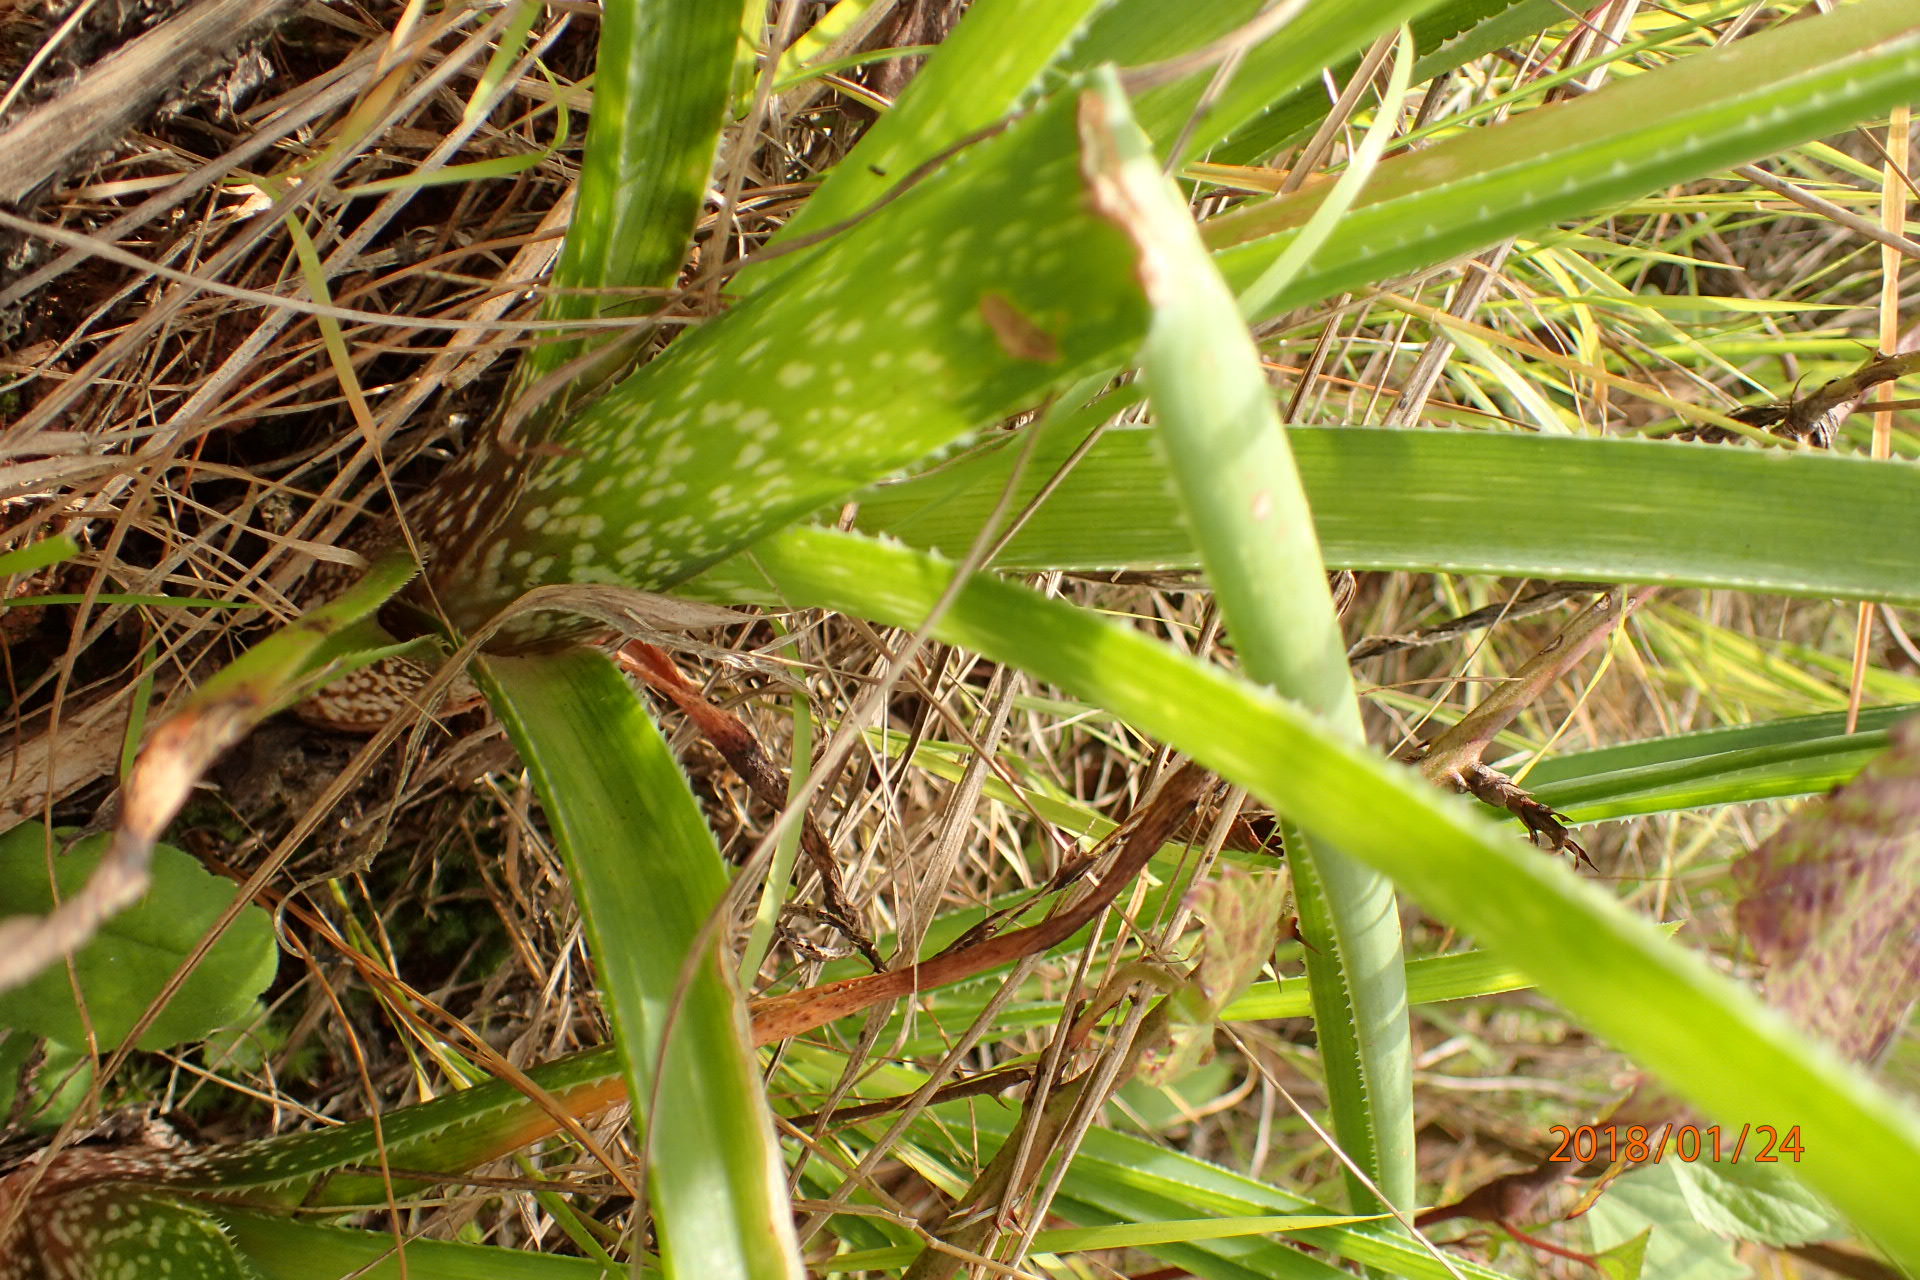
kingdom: Plantae
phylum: Tracheophyta
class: Liliopsida
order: Asparagales
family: Asphodelaceae
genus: Aloe
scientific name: Aloe cooperi
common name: Cooper's aloe
